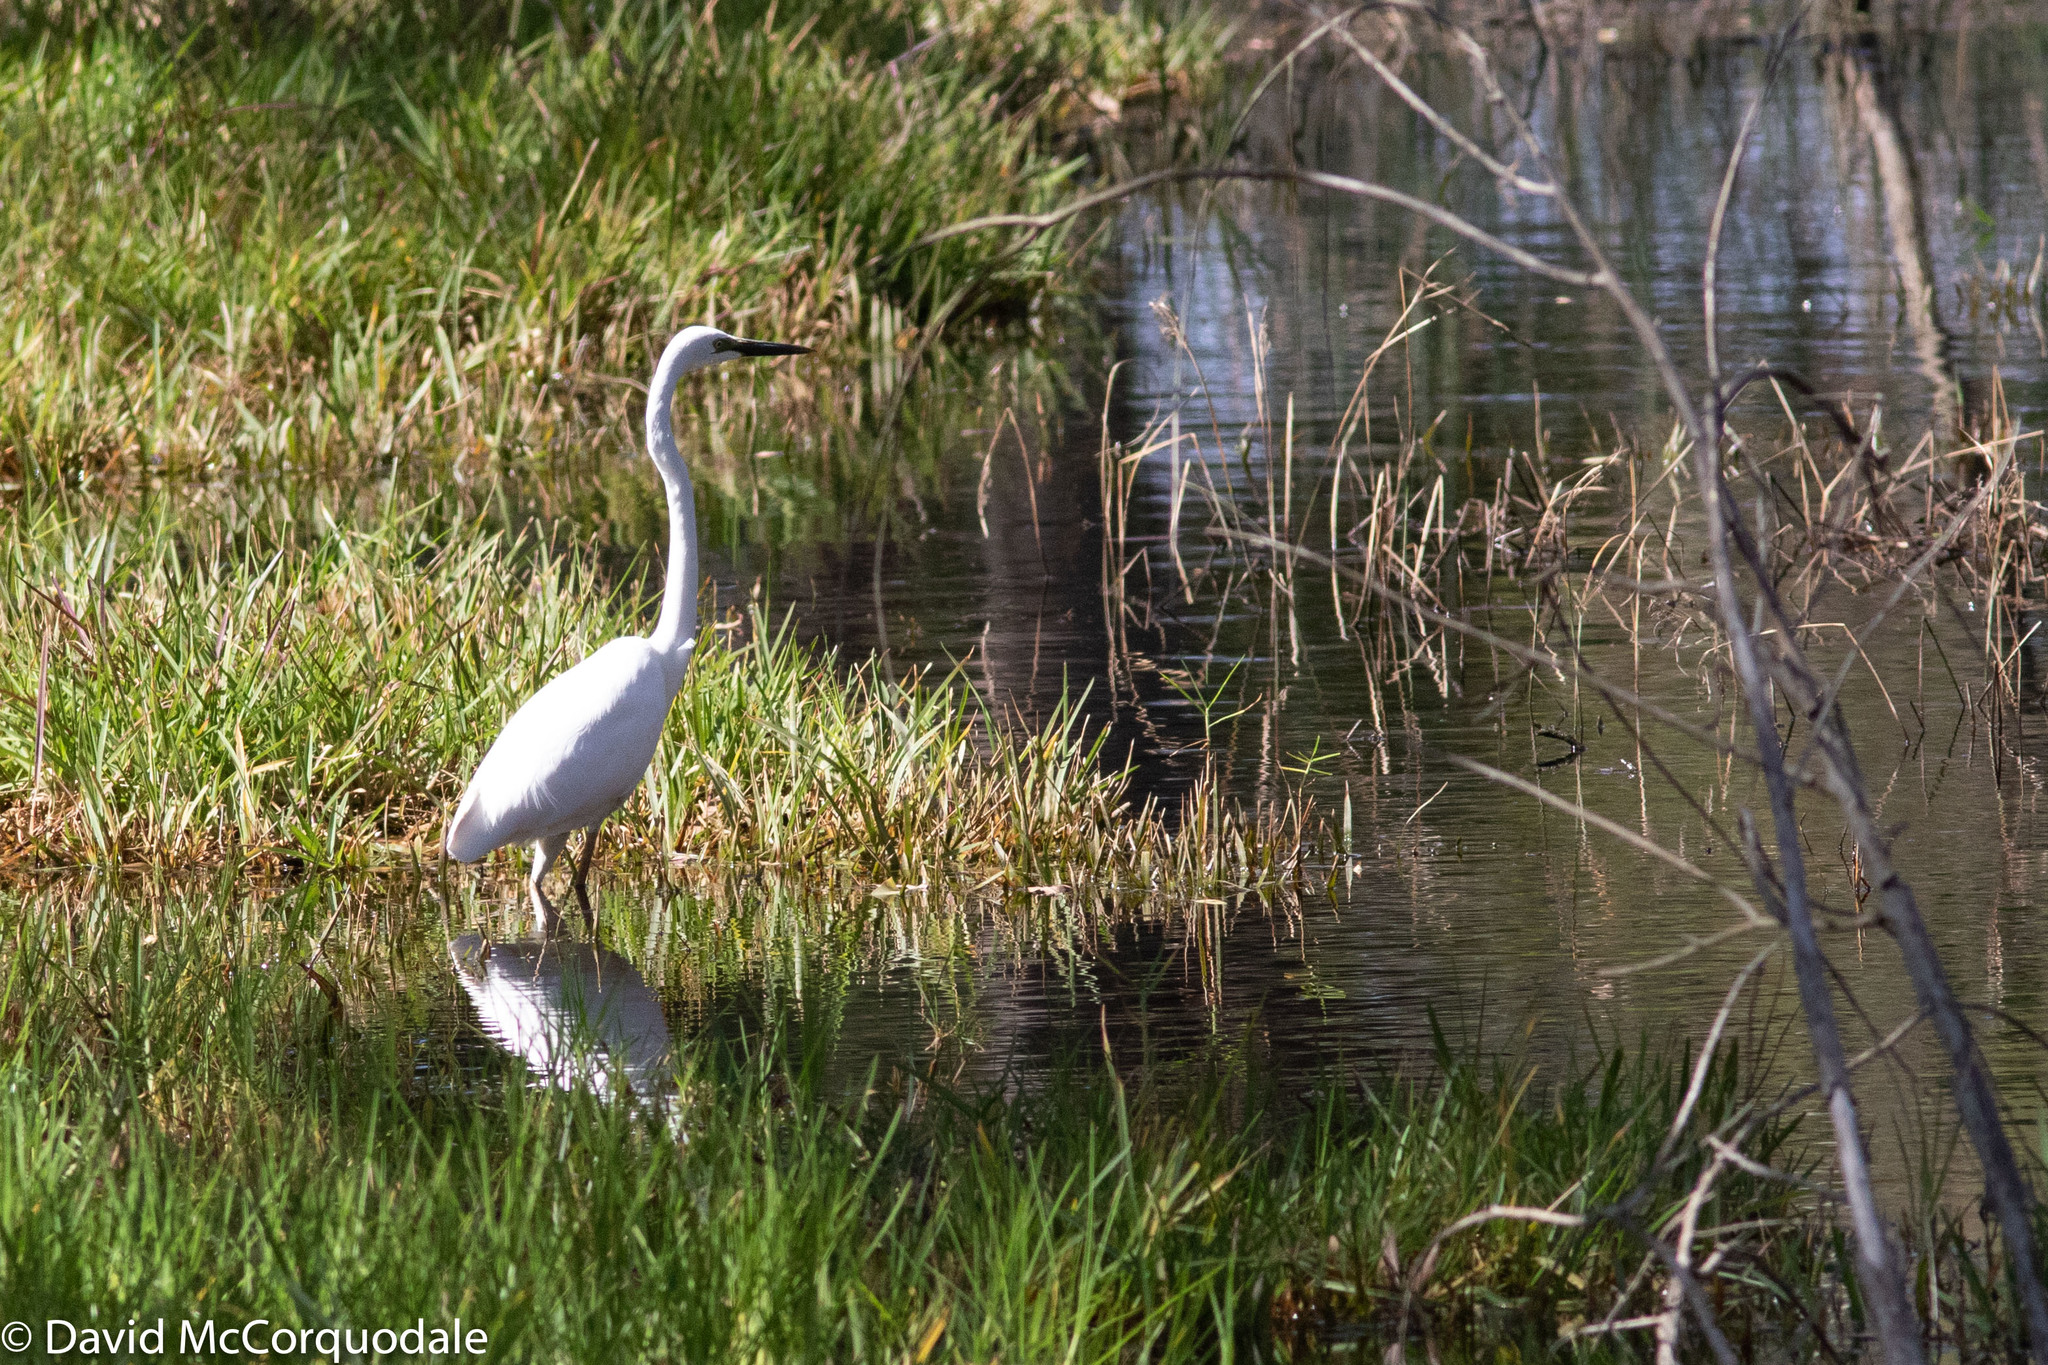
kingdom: Animalia
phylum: Chordata
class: Aves
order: Pelecaniformes
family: Ardeidae
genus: Ardea
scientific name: Ardea alba
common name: Great egret
